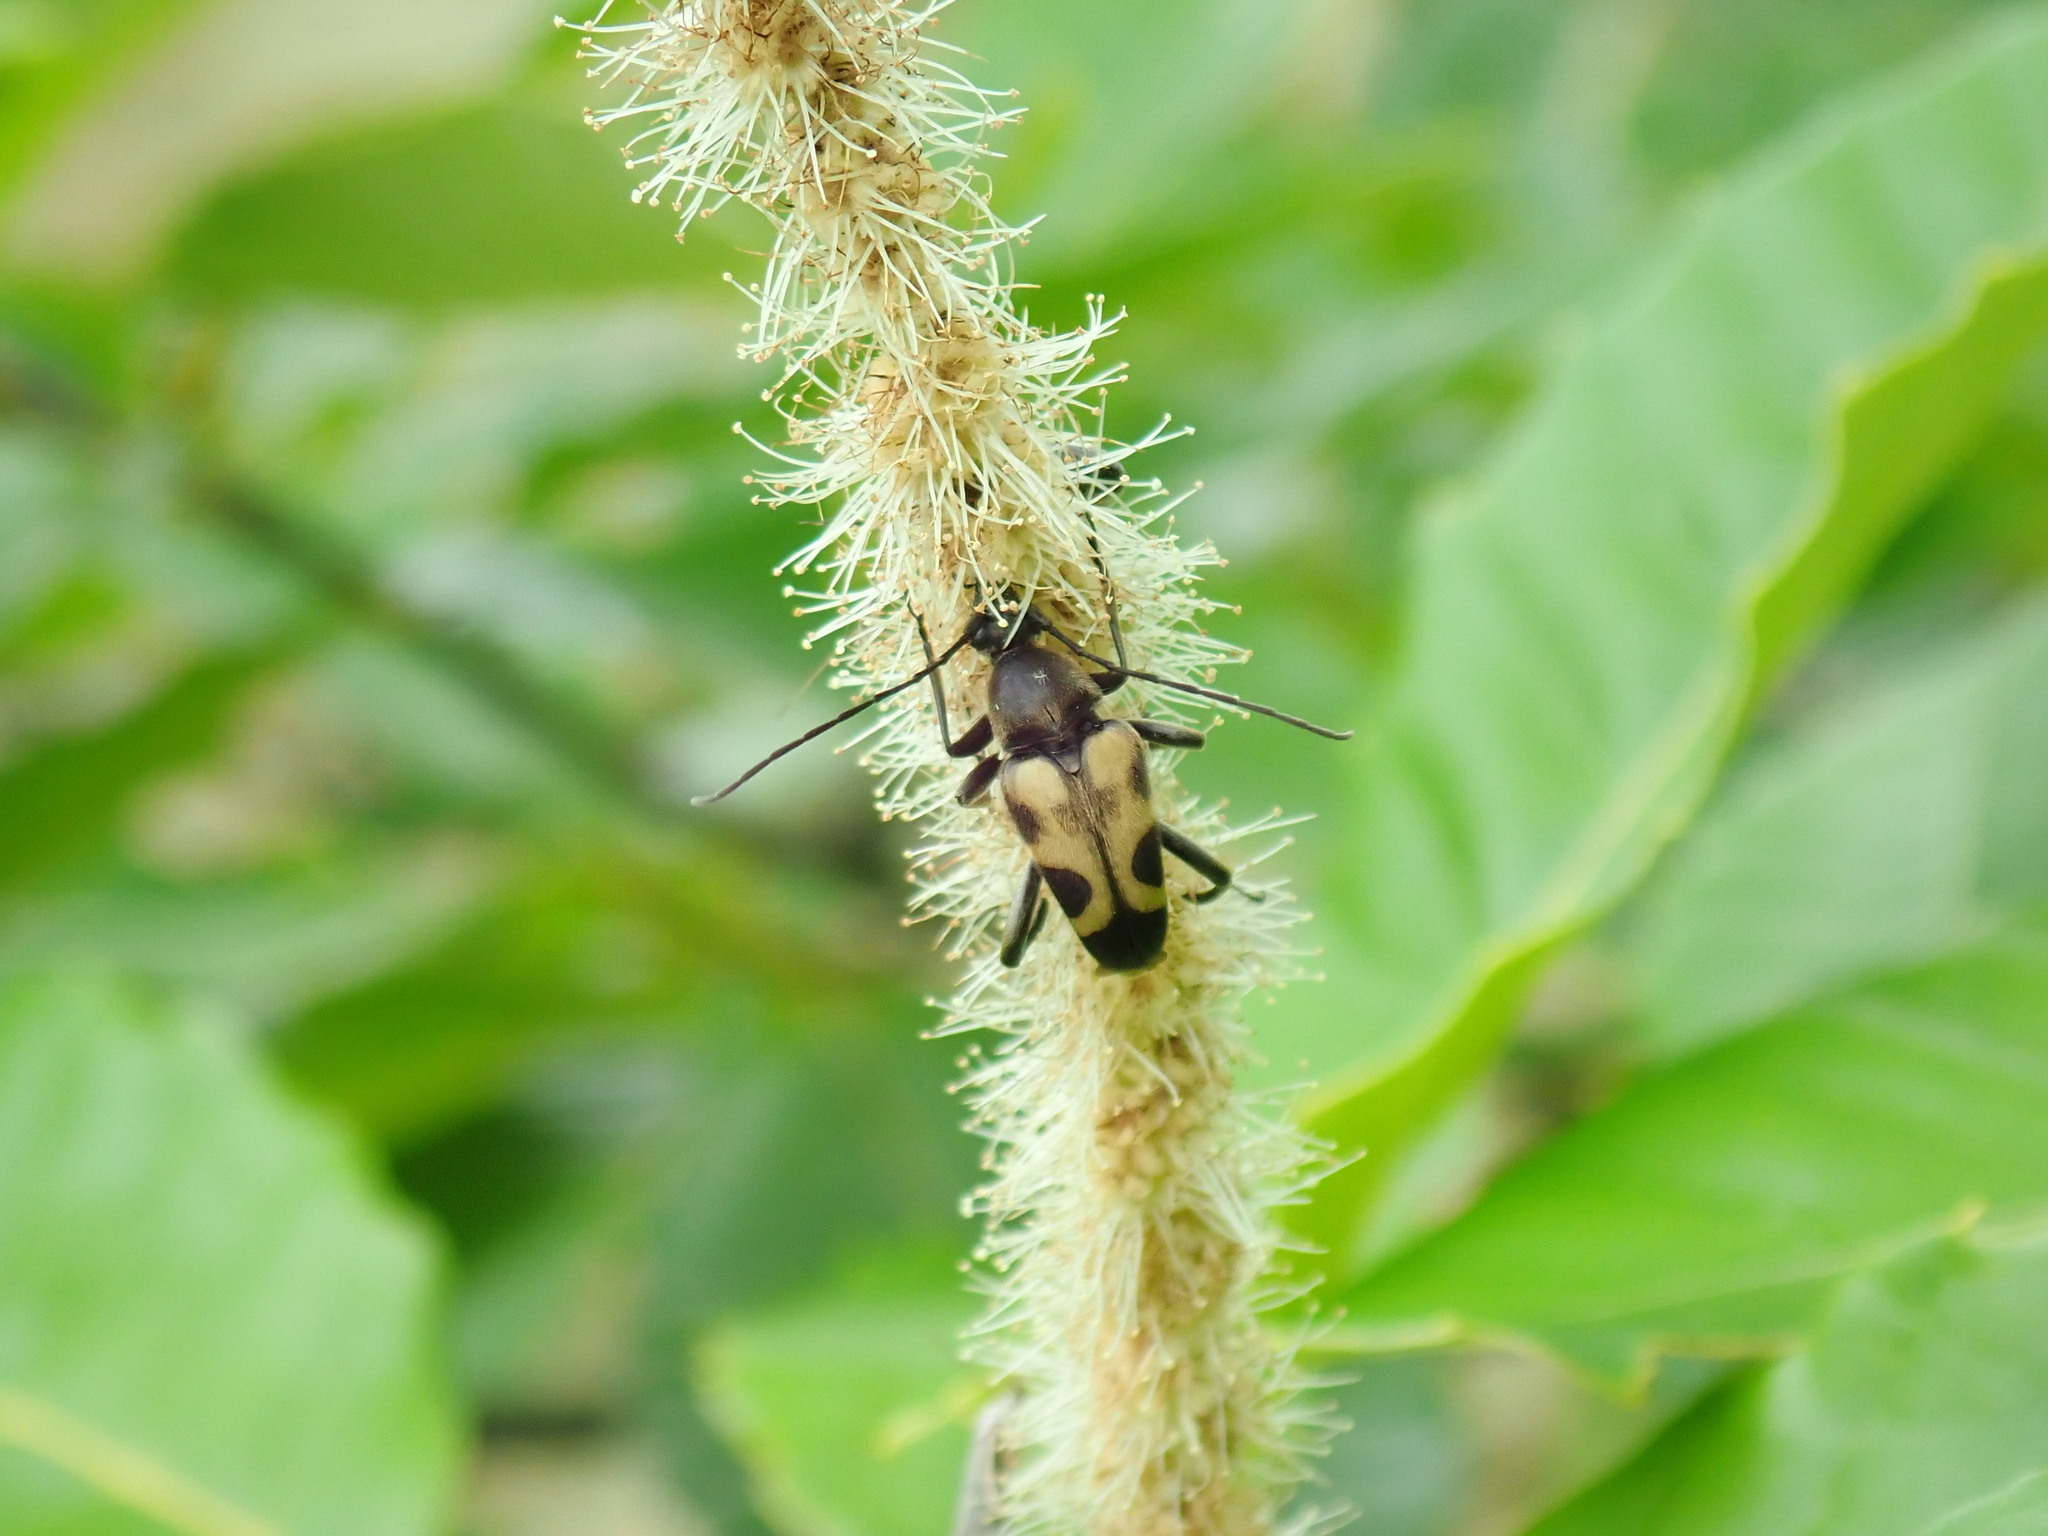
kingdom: Animalia
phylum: Arthropoda
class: Insecta
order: Coleoptera
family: Cerambycidae
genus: Judolia
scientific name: Judolia cordifera
